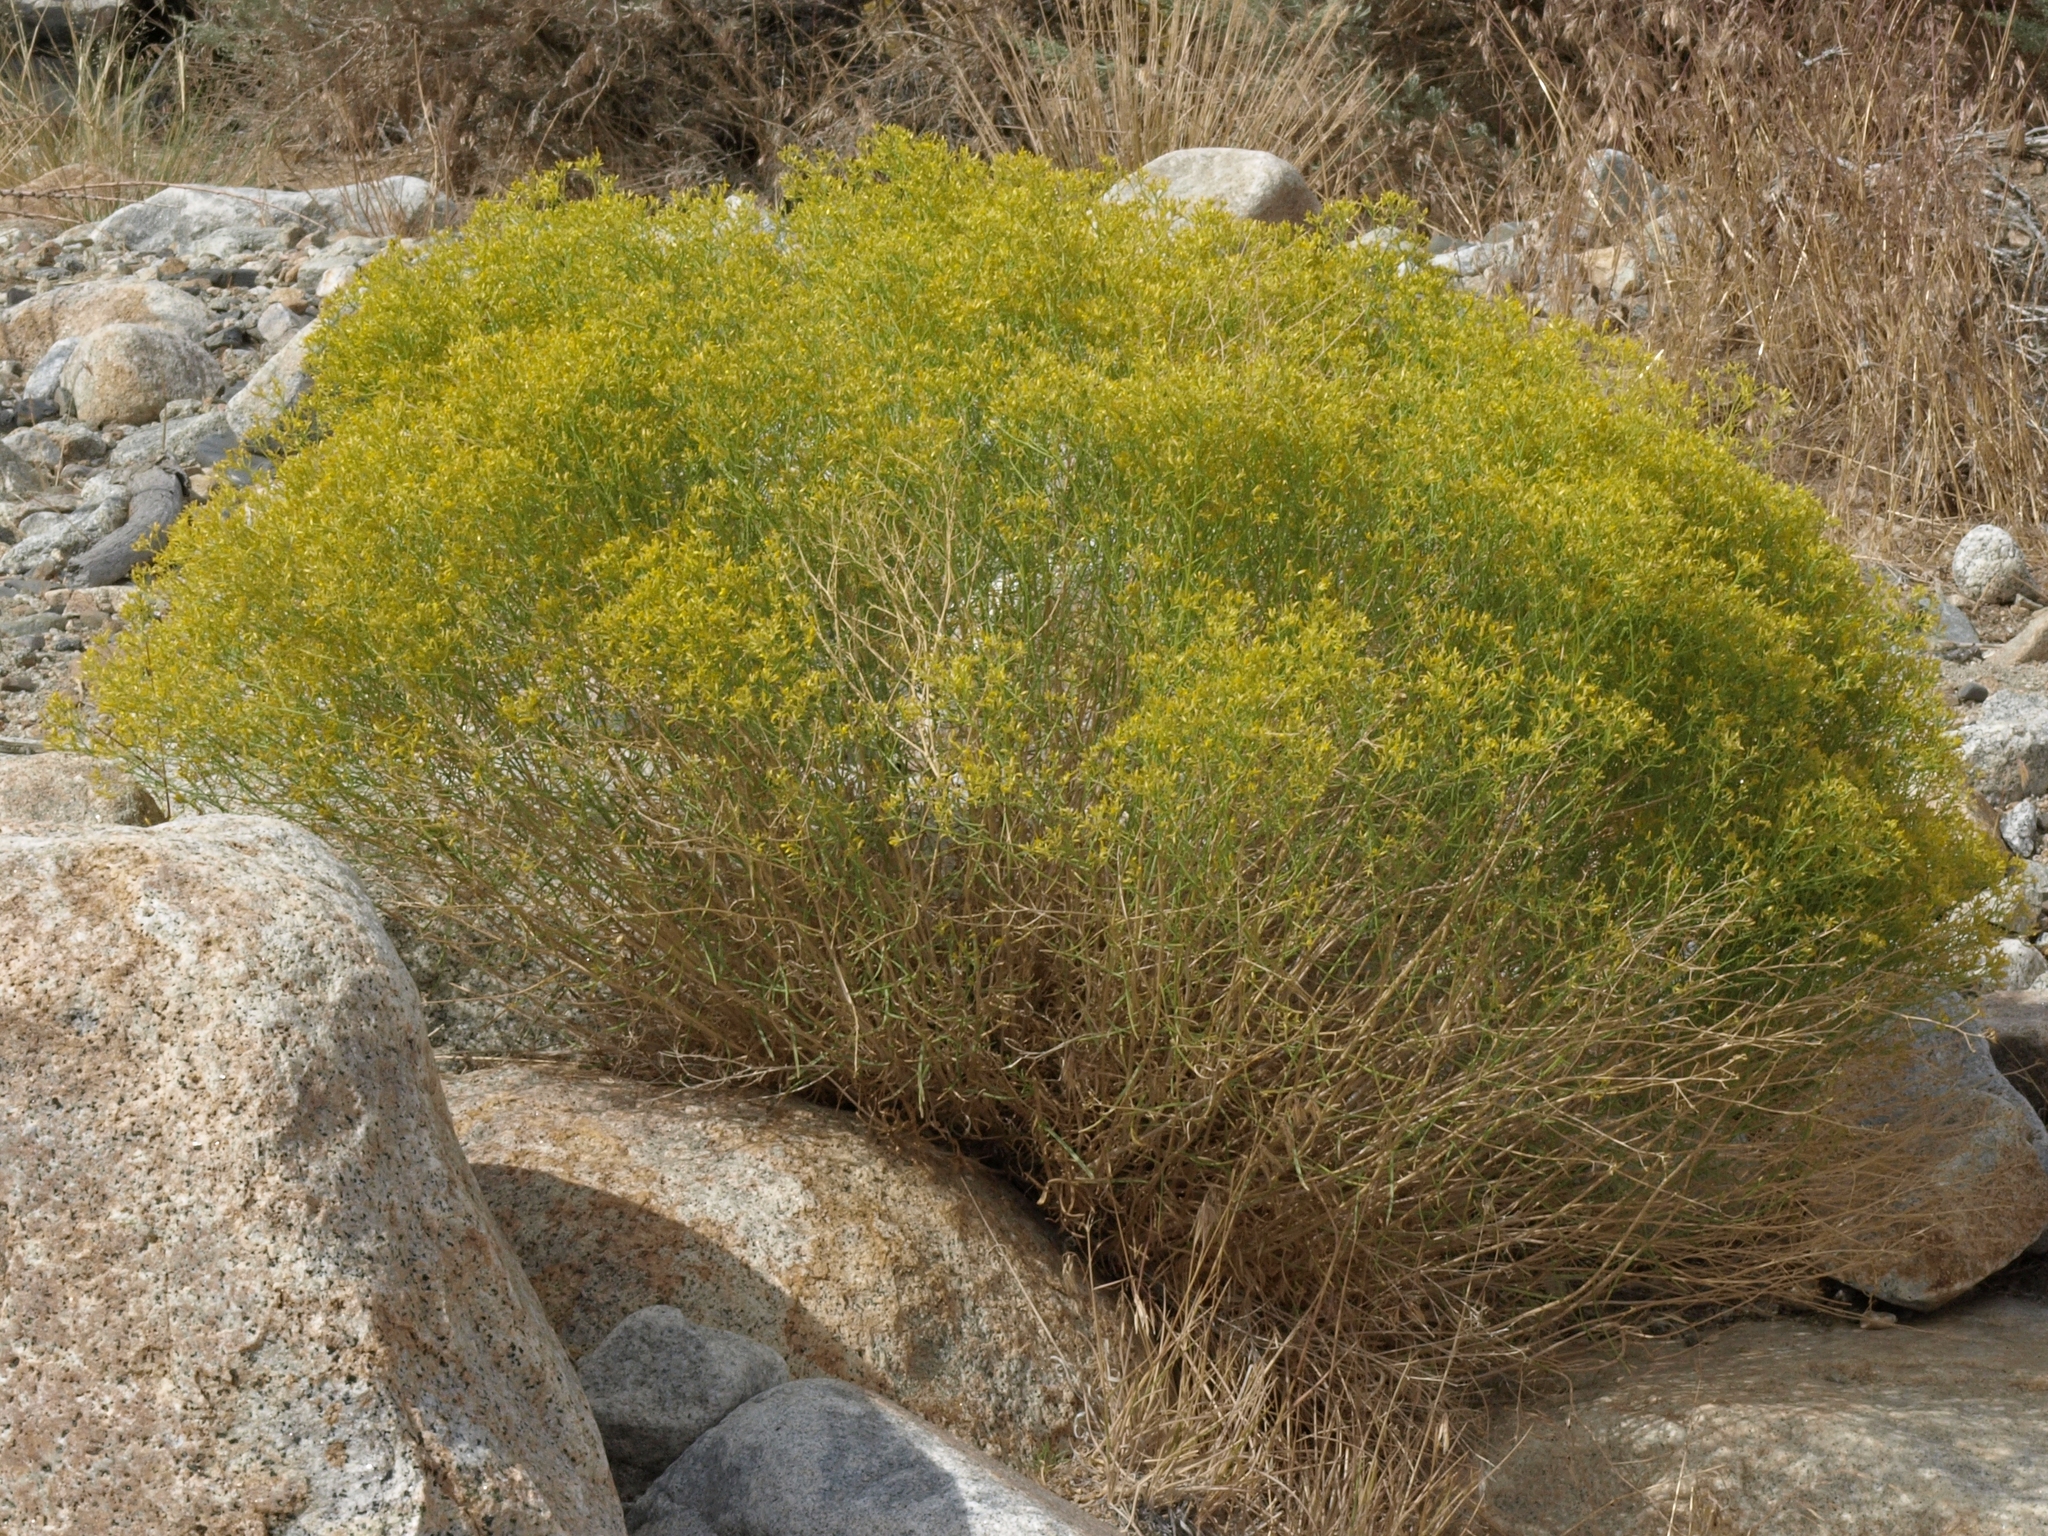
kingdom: Plantae
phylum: Tracheophyta
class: Magnoliopsida
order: Asterales
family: Asteraceae
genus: Gutierrezia
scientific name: Gutierrezia microcephala
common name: Thread snakeweed
